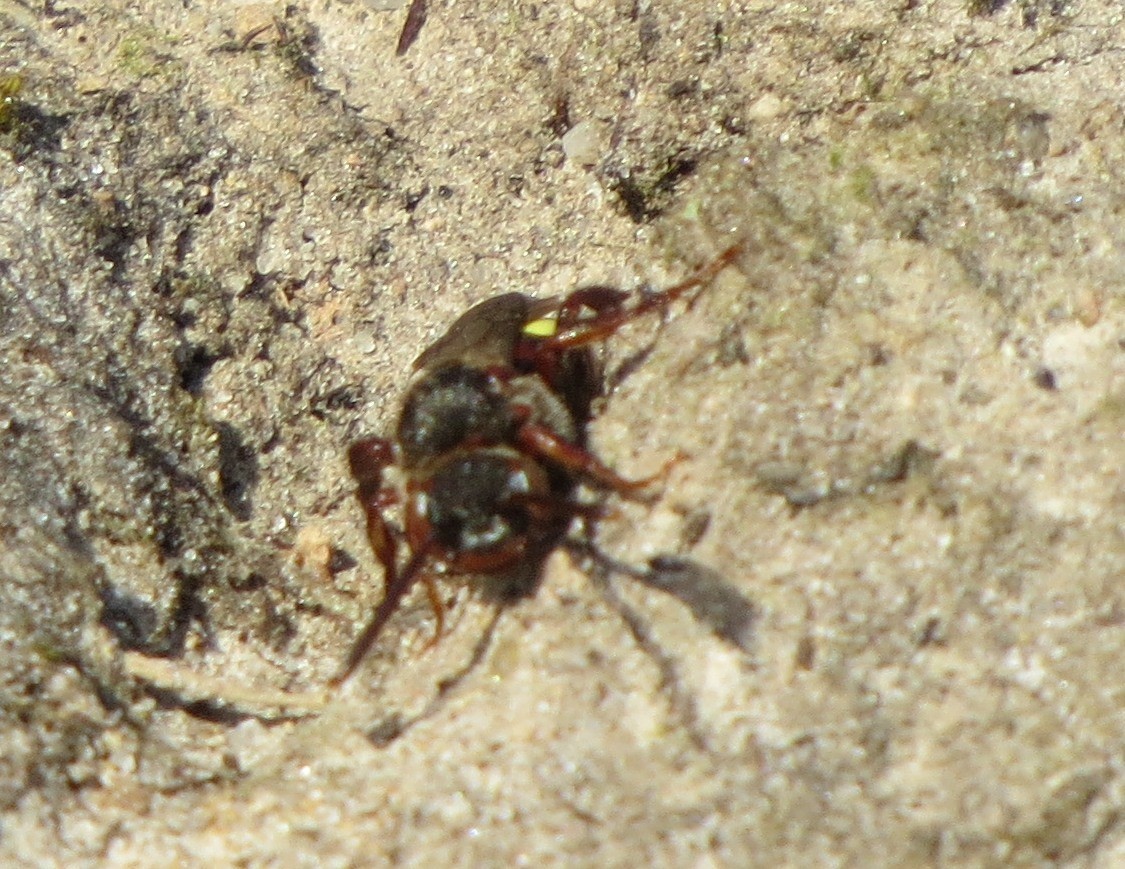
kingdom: Animalia
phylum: Arthropoda
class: Insecta
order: Hymenoptera
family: Apidae
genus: Nomada
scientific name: Nomada leucophthalma
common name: Early nomad bee
